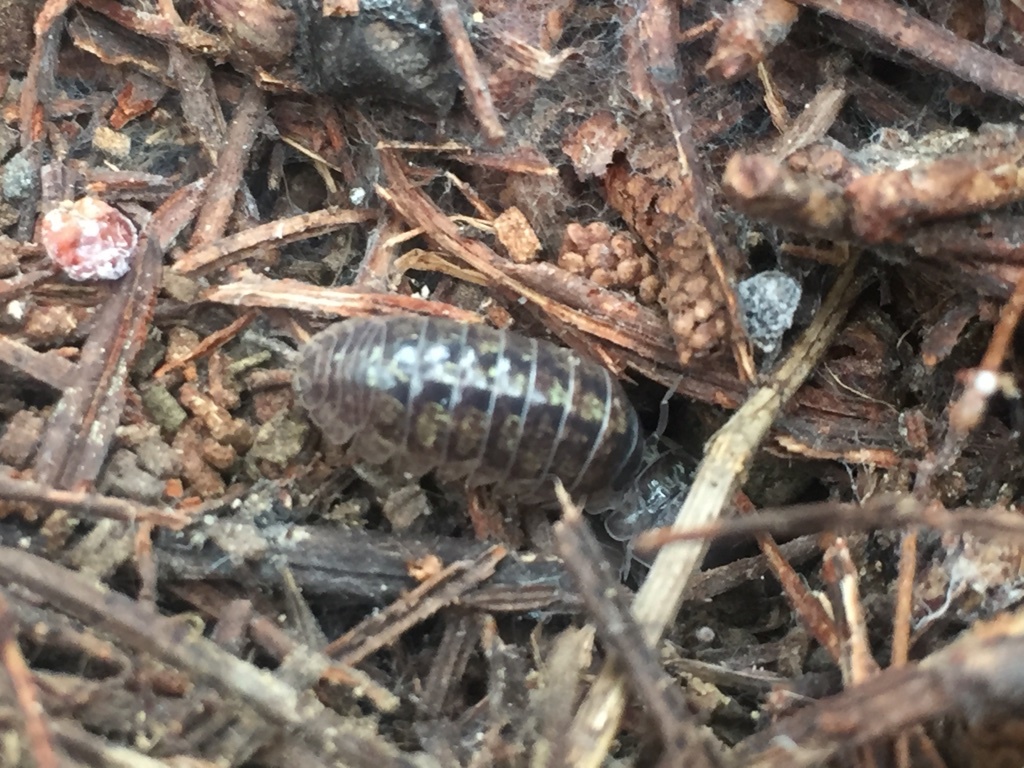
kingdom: Animalia
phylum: Arthropoda
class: Malacostraca
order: Isopoda
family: Armadillidiidae
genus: Armadillidium
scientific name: Armadillidium vulgare
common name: Common pill woodlouse
